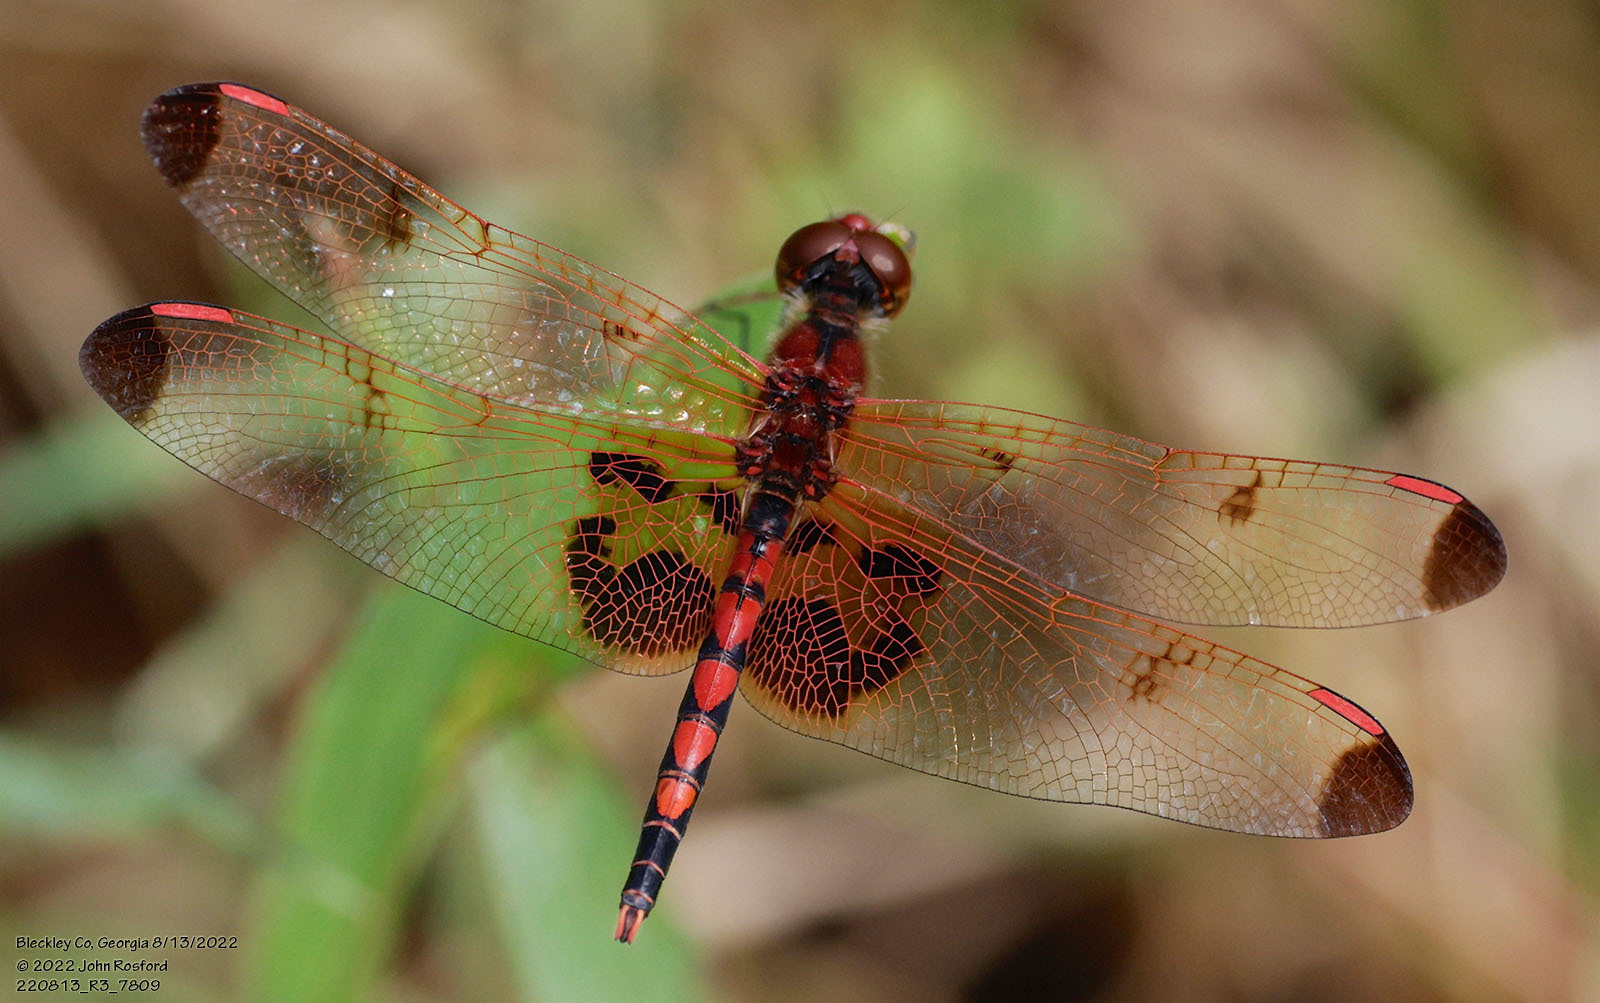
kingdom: Animalia
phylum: Arthropoda
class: Insecta
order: Odonata
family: Libellulidae
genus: Celithemis
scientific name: Celithemis elisa
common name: Calico pennant
